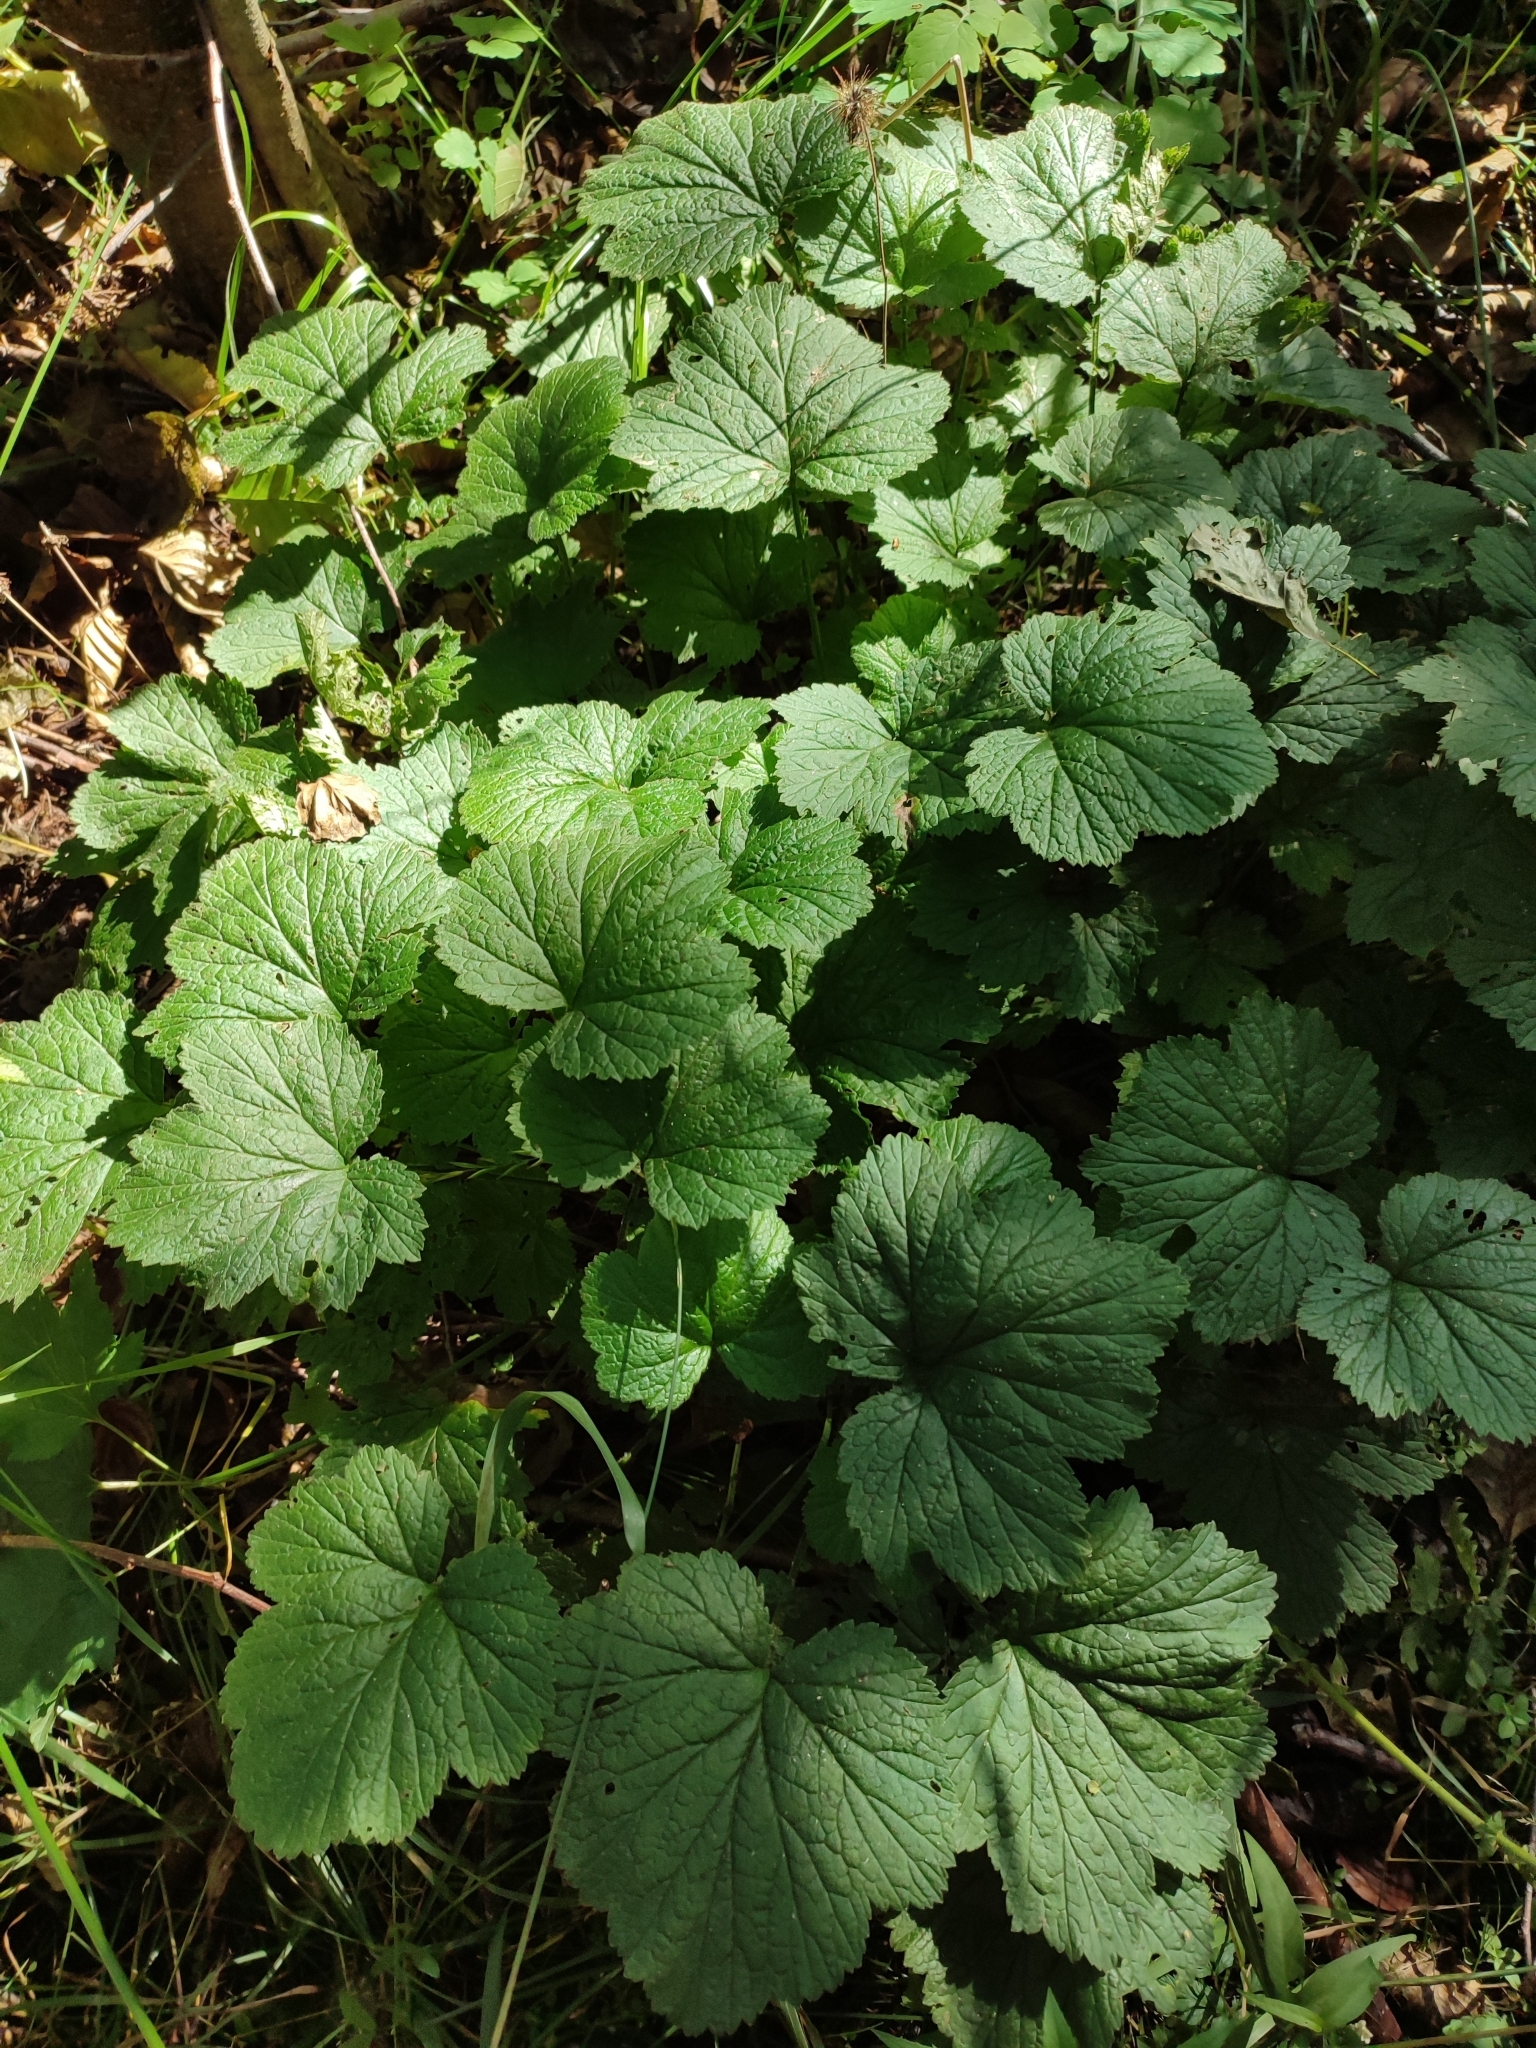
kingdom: Plantae
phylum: Tracheophyta
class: Magnoliopsida
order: Rosales
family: Rosaceae
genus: Geum
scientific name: Geum rivale
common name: Water avens
